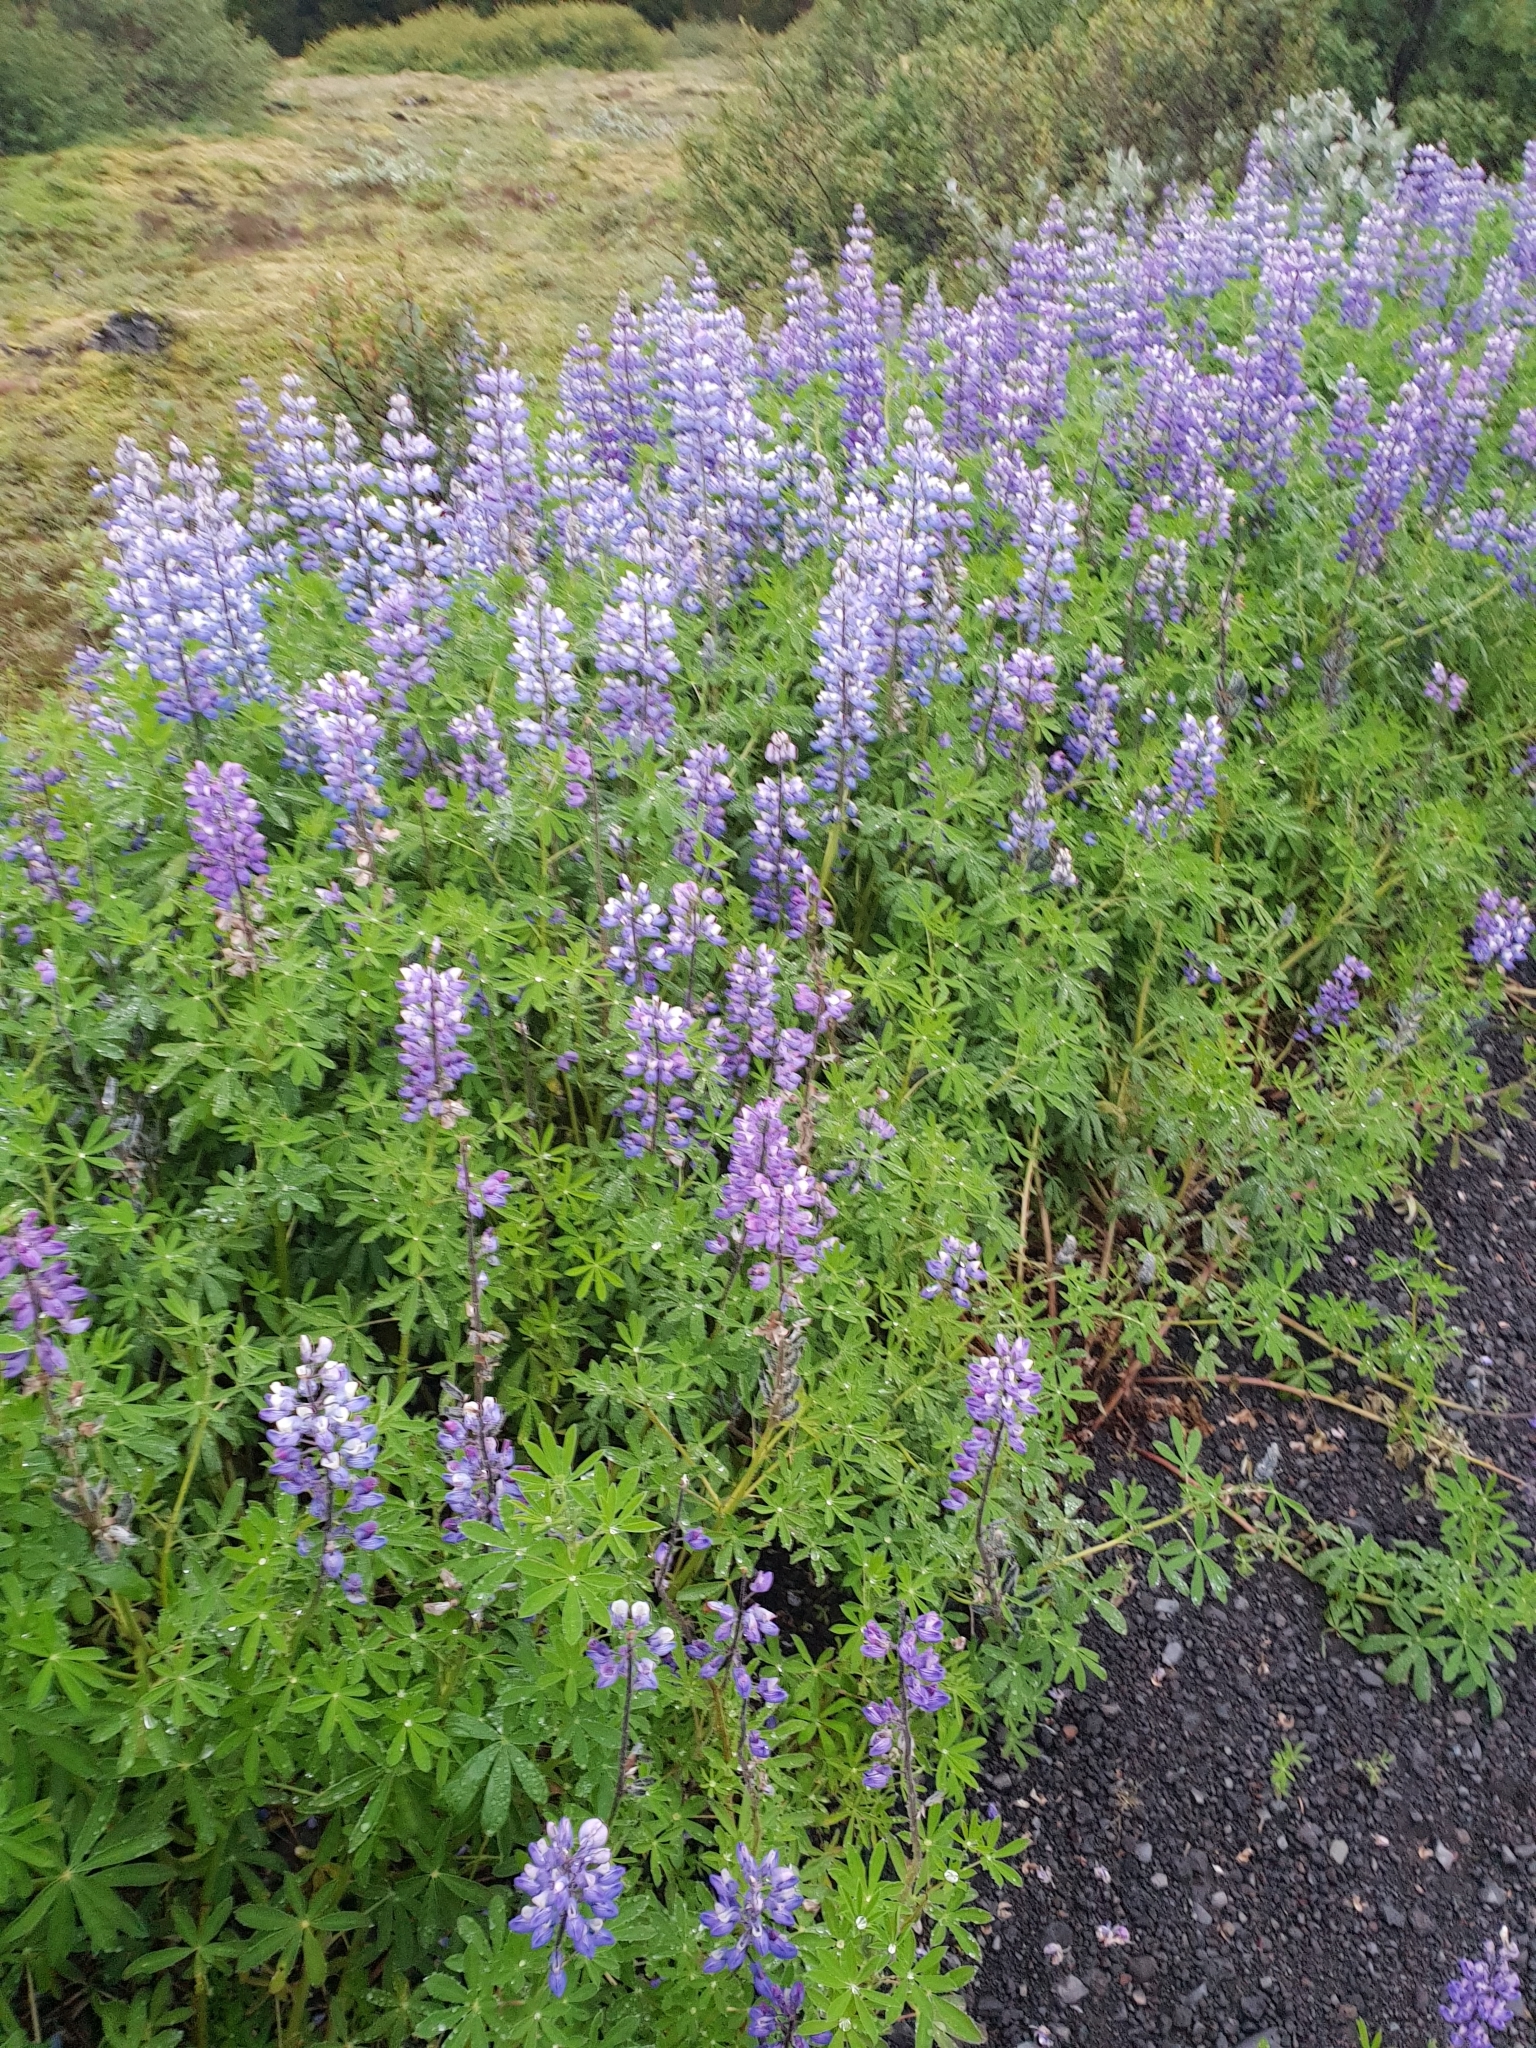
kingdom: Plantae
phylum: Tracheophyta
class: Magnoliopsida
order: Fabales
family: Fabaceae
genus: Lupinus
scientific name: Lupinus nootkatensis
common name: Nootka lupine
